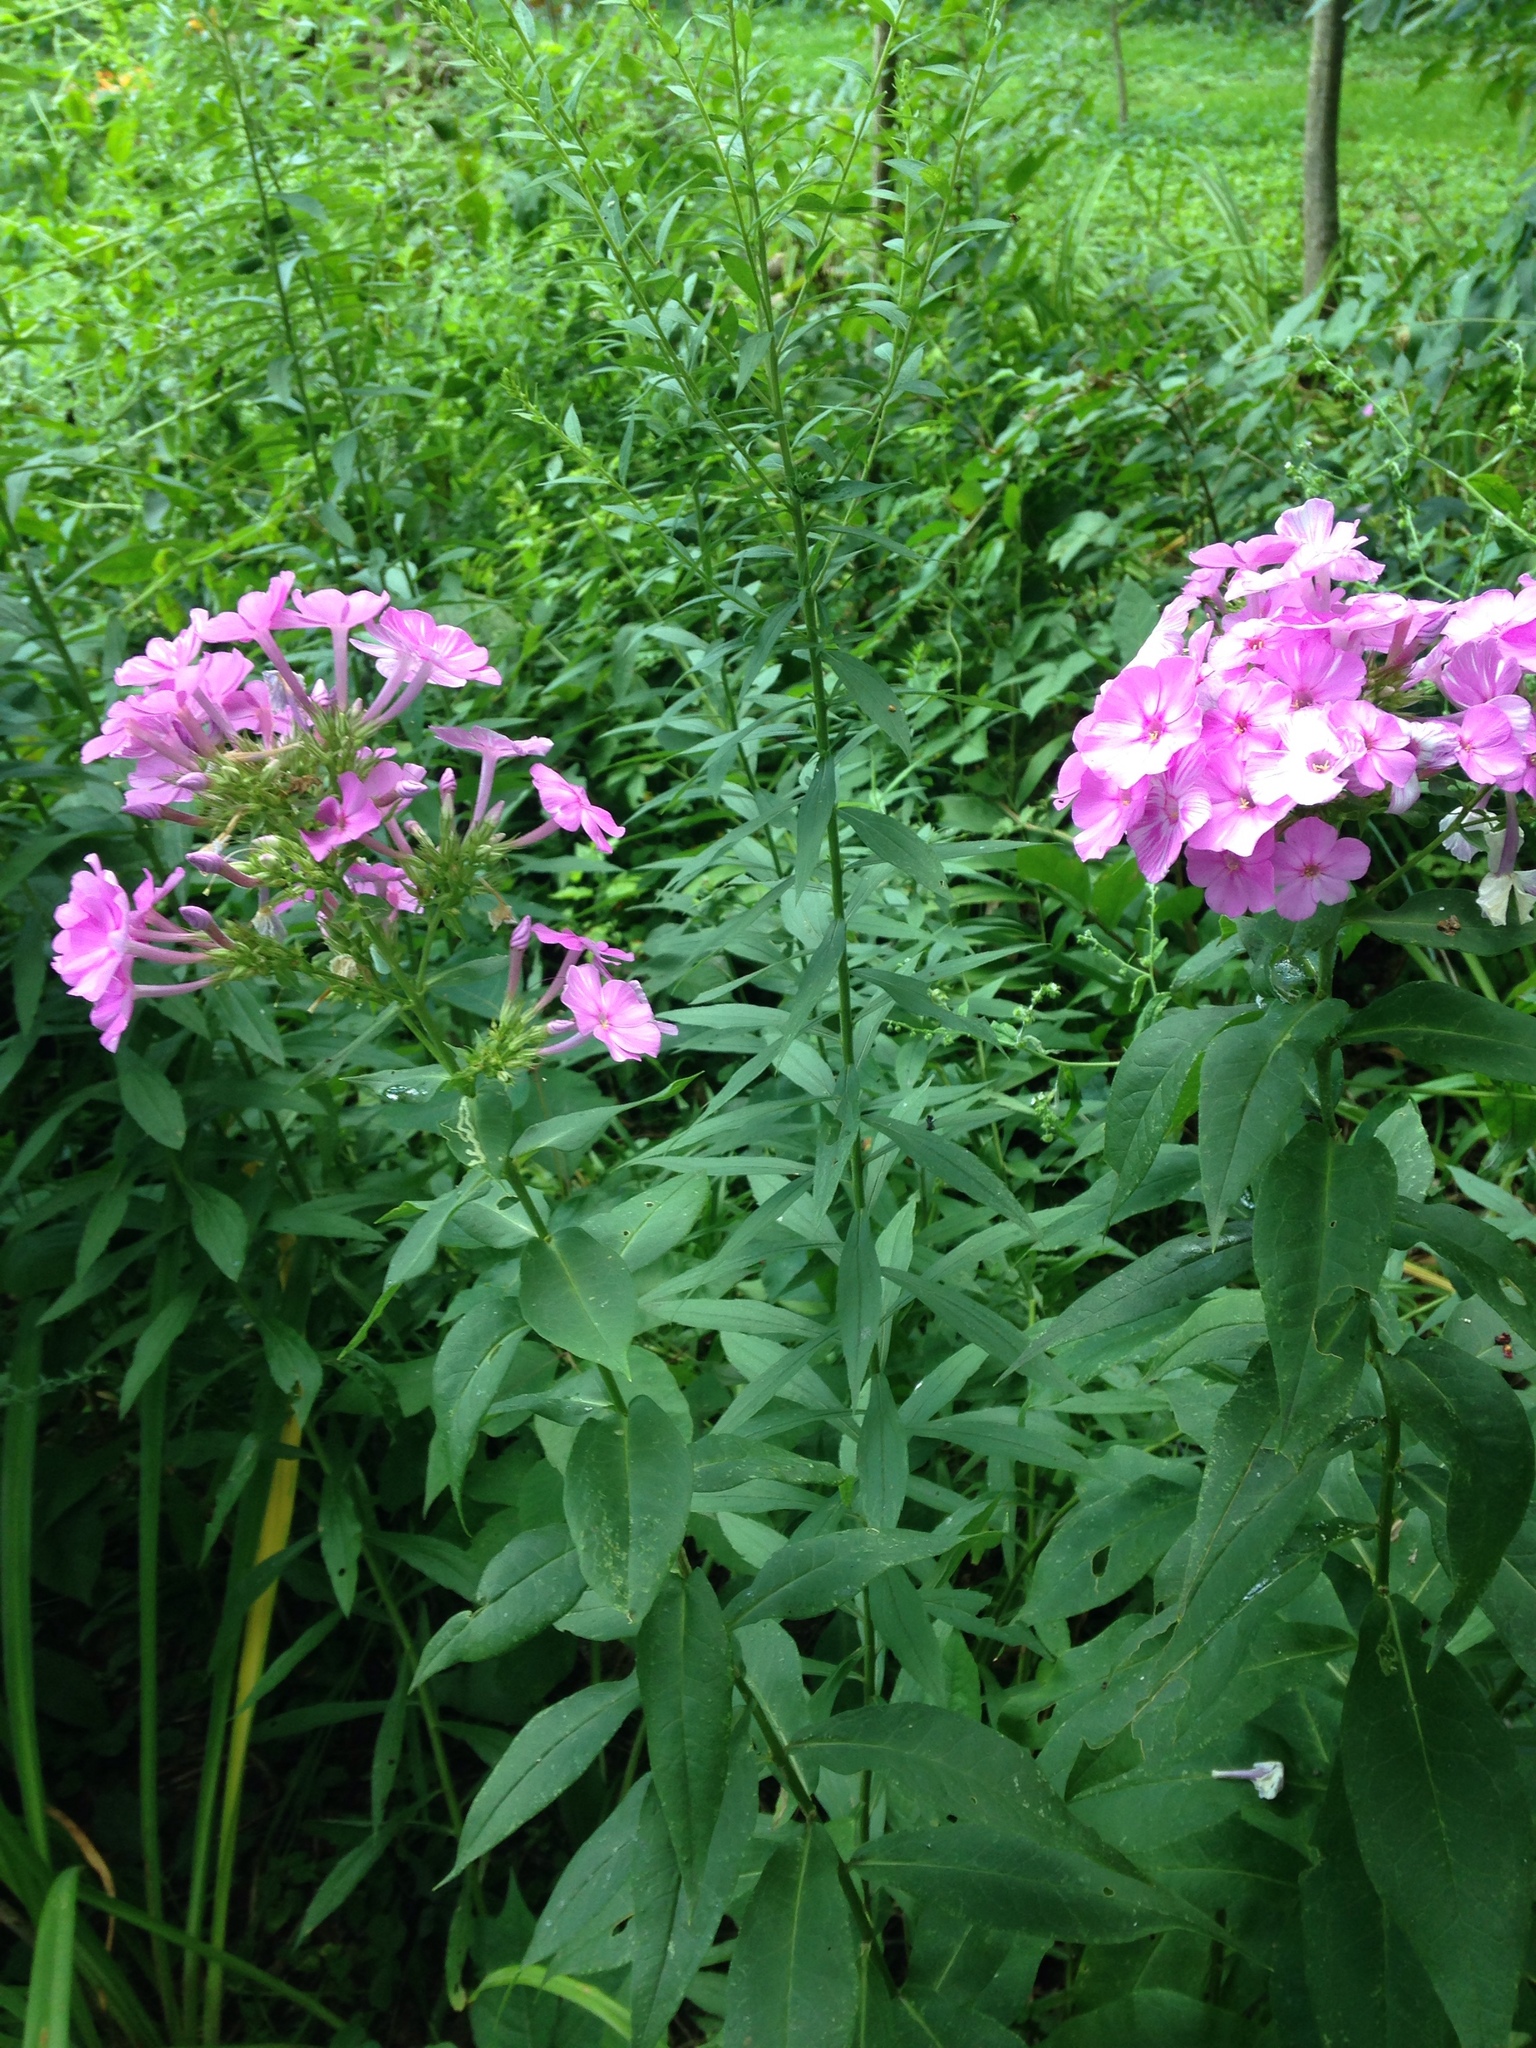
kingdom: Plantae
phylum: Tracheophyta
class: Magnoliopsida
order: Ericales
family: Polemoniaceae
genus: Phlox
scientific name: Phlox paniculata
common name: Fall phlox
